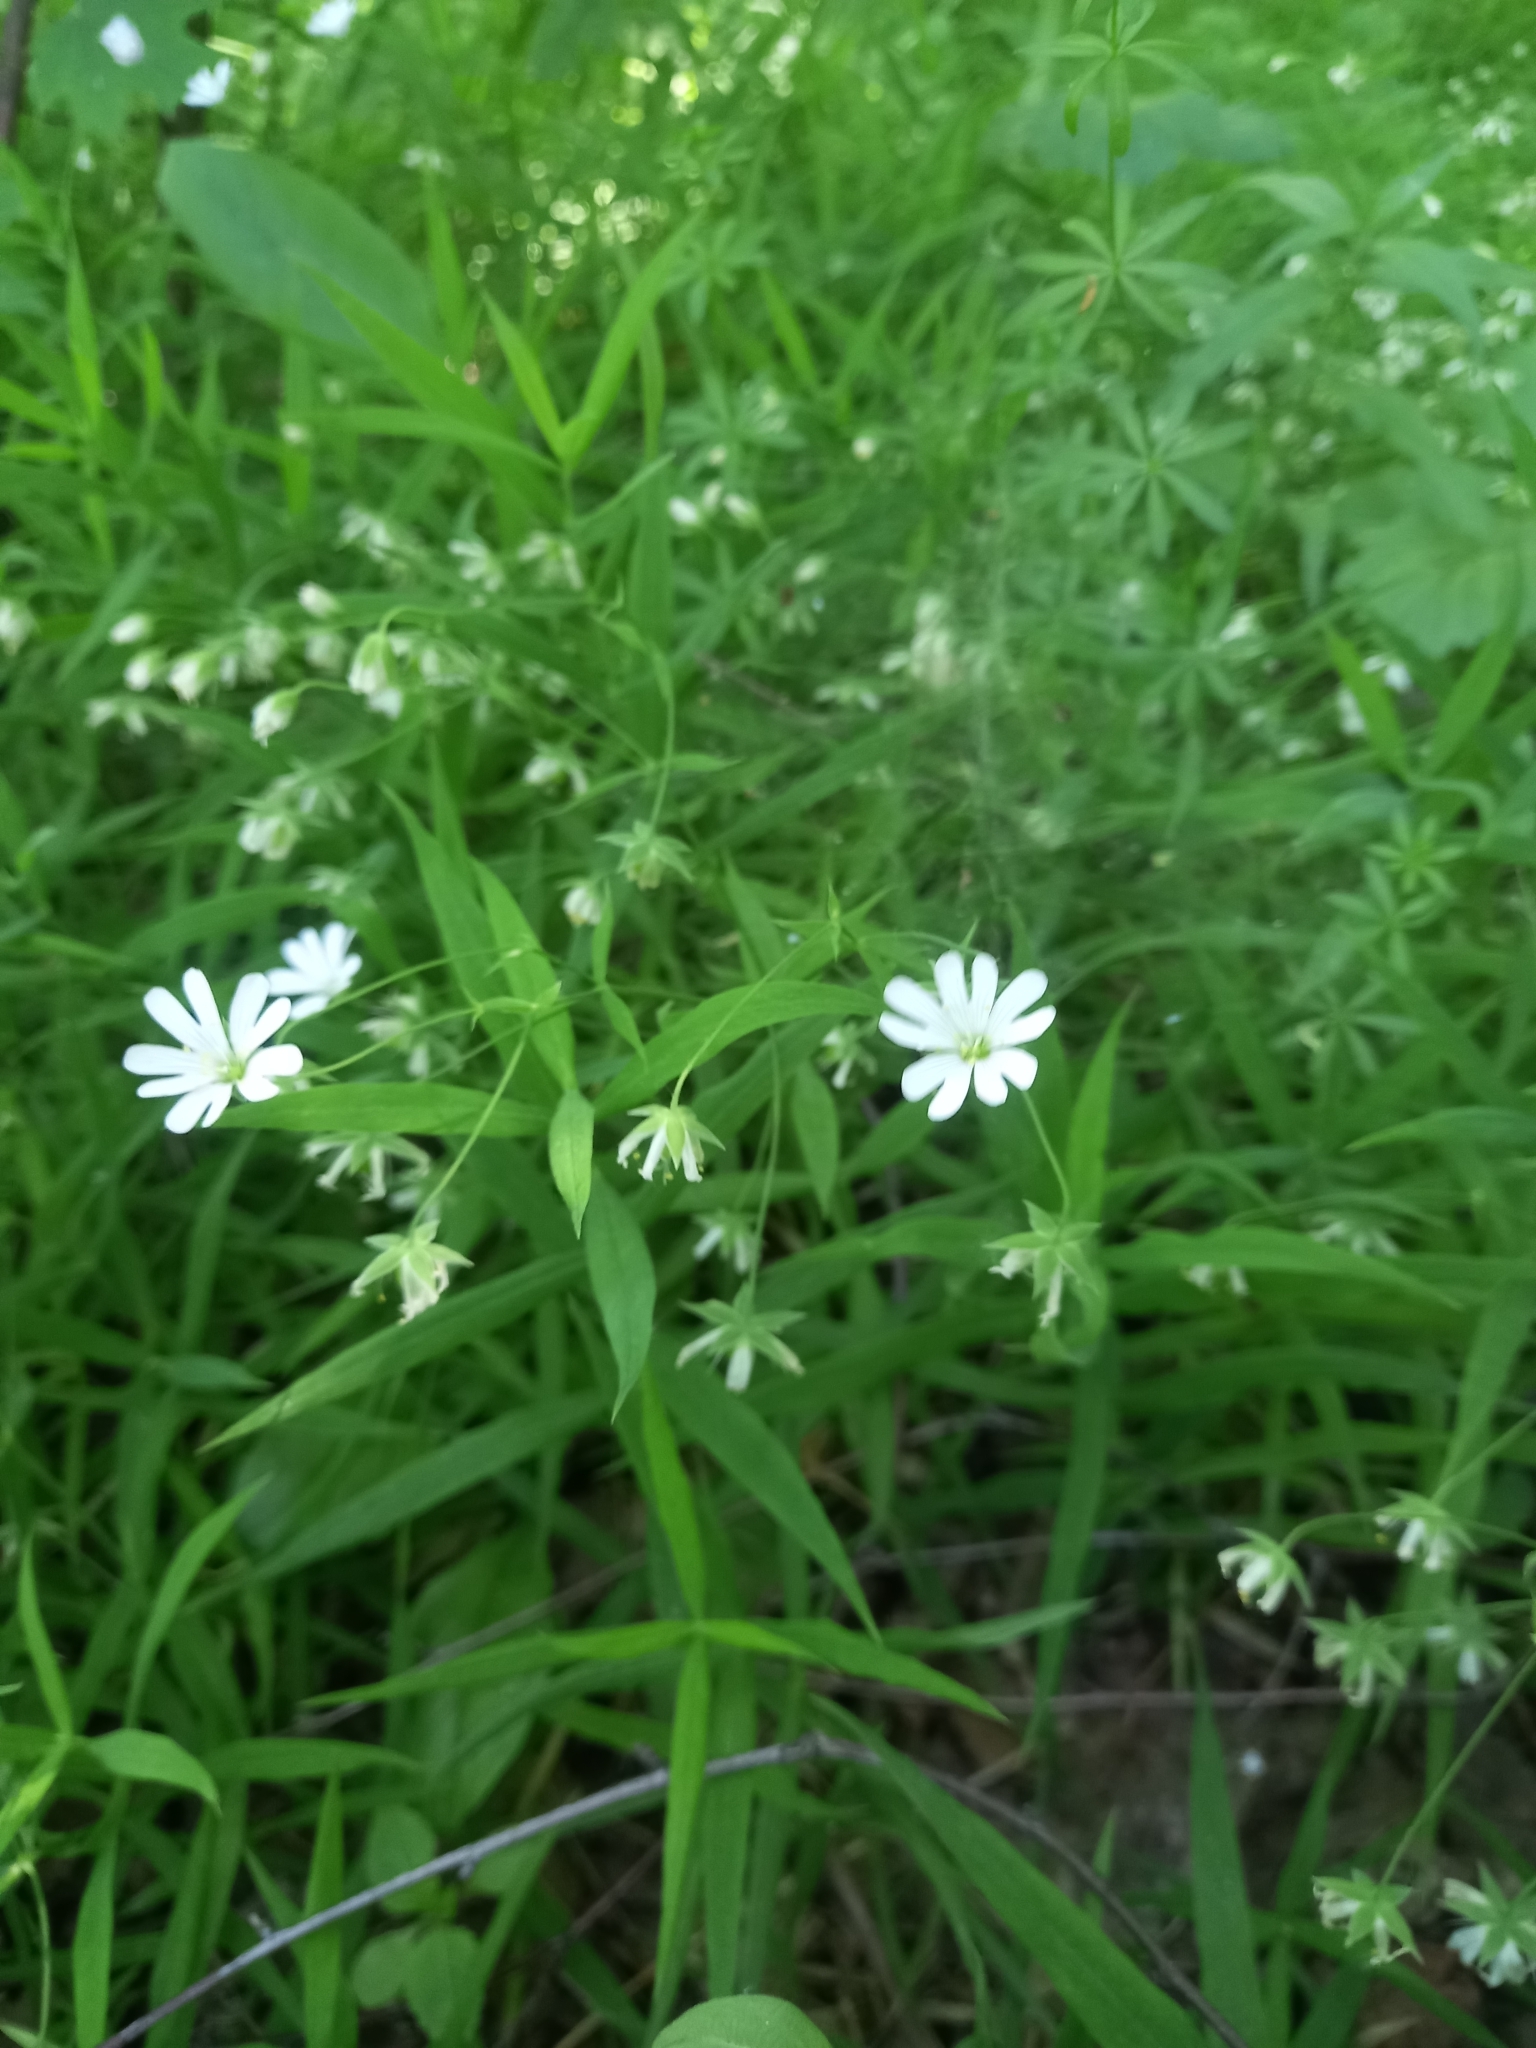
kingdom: Plantae
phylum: Tracheophyta
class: Magnoliopsida
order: Caryophyllales
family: Caryophyllaceae
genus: Rabelera
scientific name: Rabelera holostea
